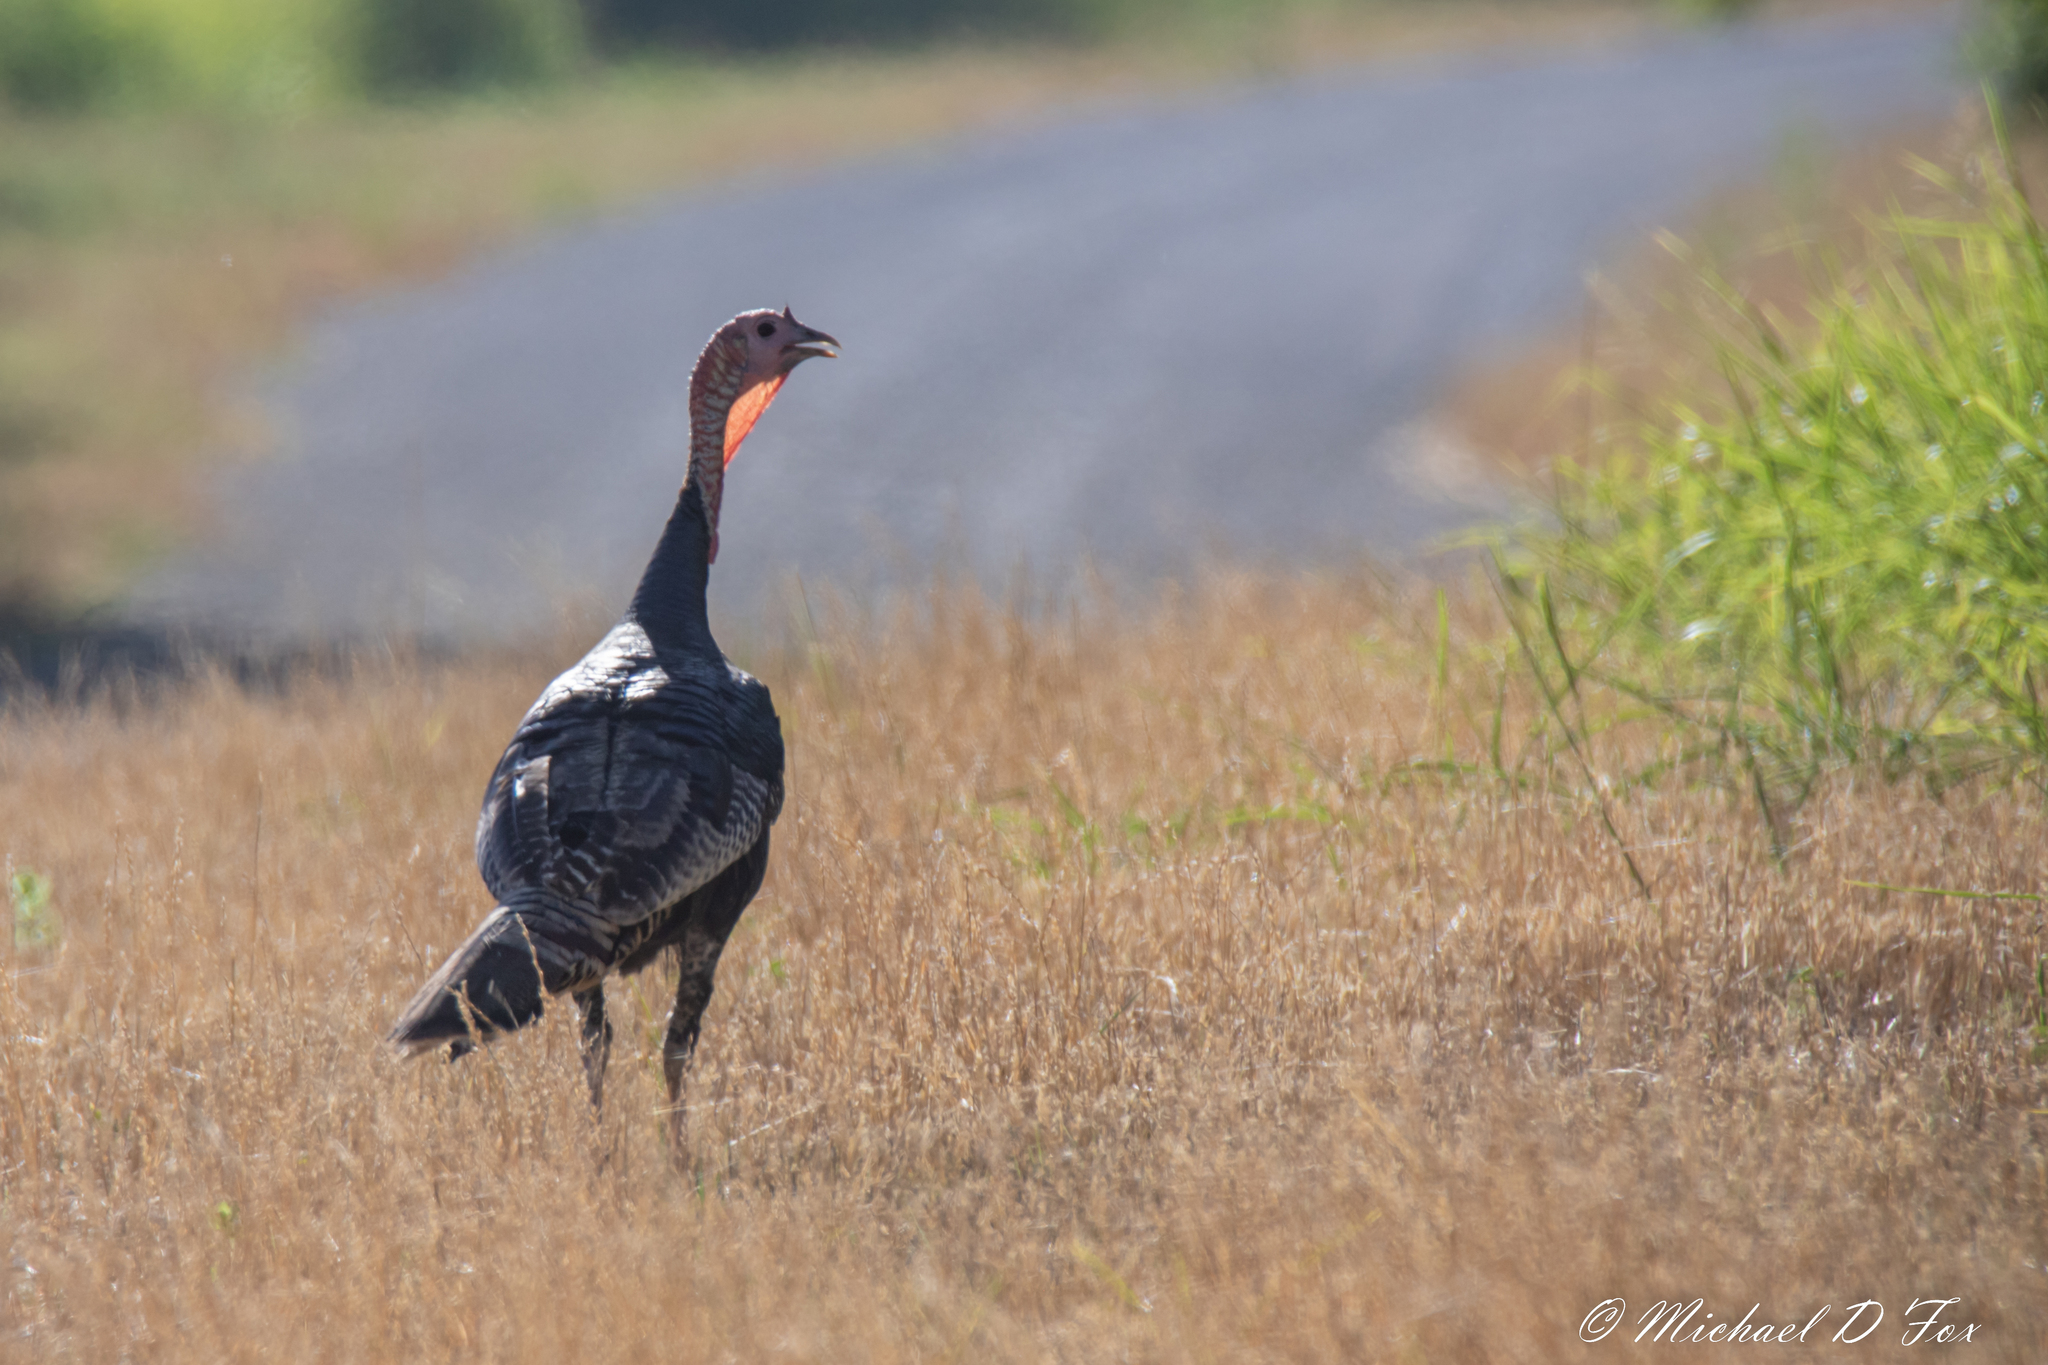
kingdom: Animalia
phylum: Chordata
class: Aves
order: Galliformes
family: Phasianidae
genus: Meleagris
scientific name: Meleagris gallopavo
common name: Wild turkey
